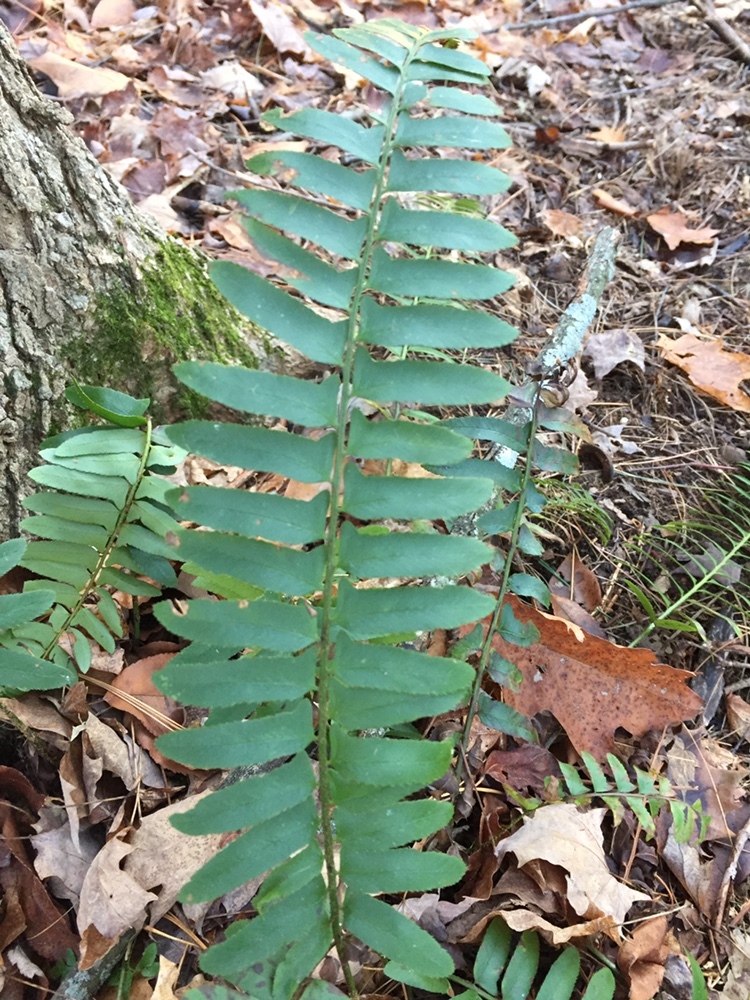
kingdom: Plantae
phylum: Tracheophyta
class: Polypodiopsida
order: Polypodiales
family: Dryopteridaceae
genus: Polystichum
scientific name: Polystichum acrostichoides
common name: Christmas fern
